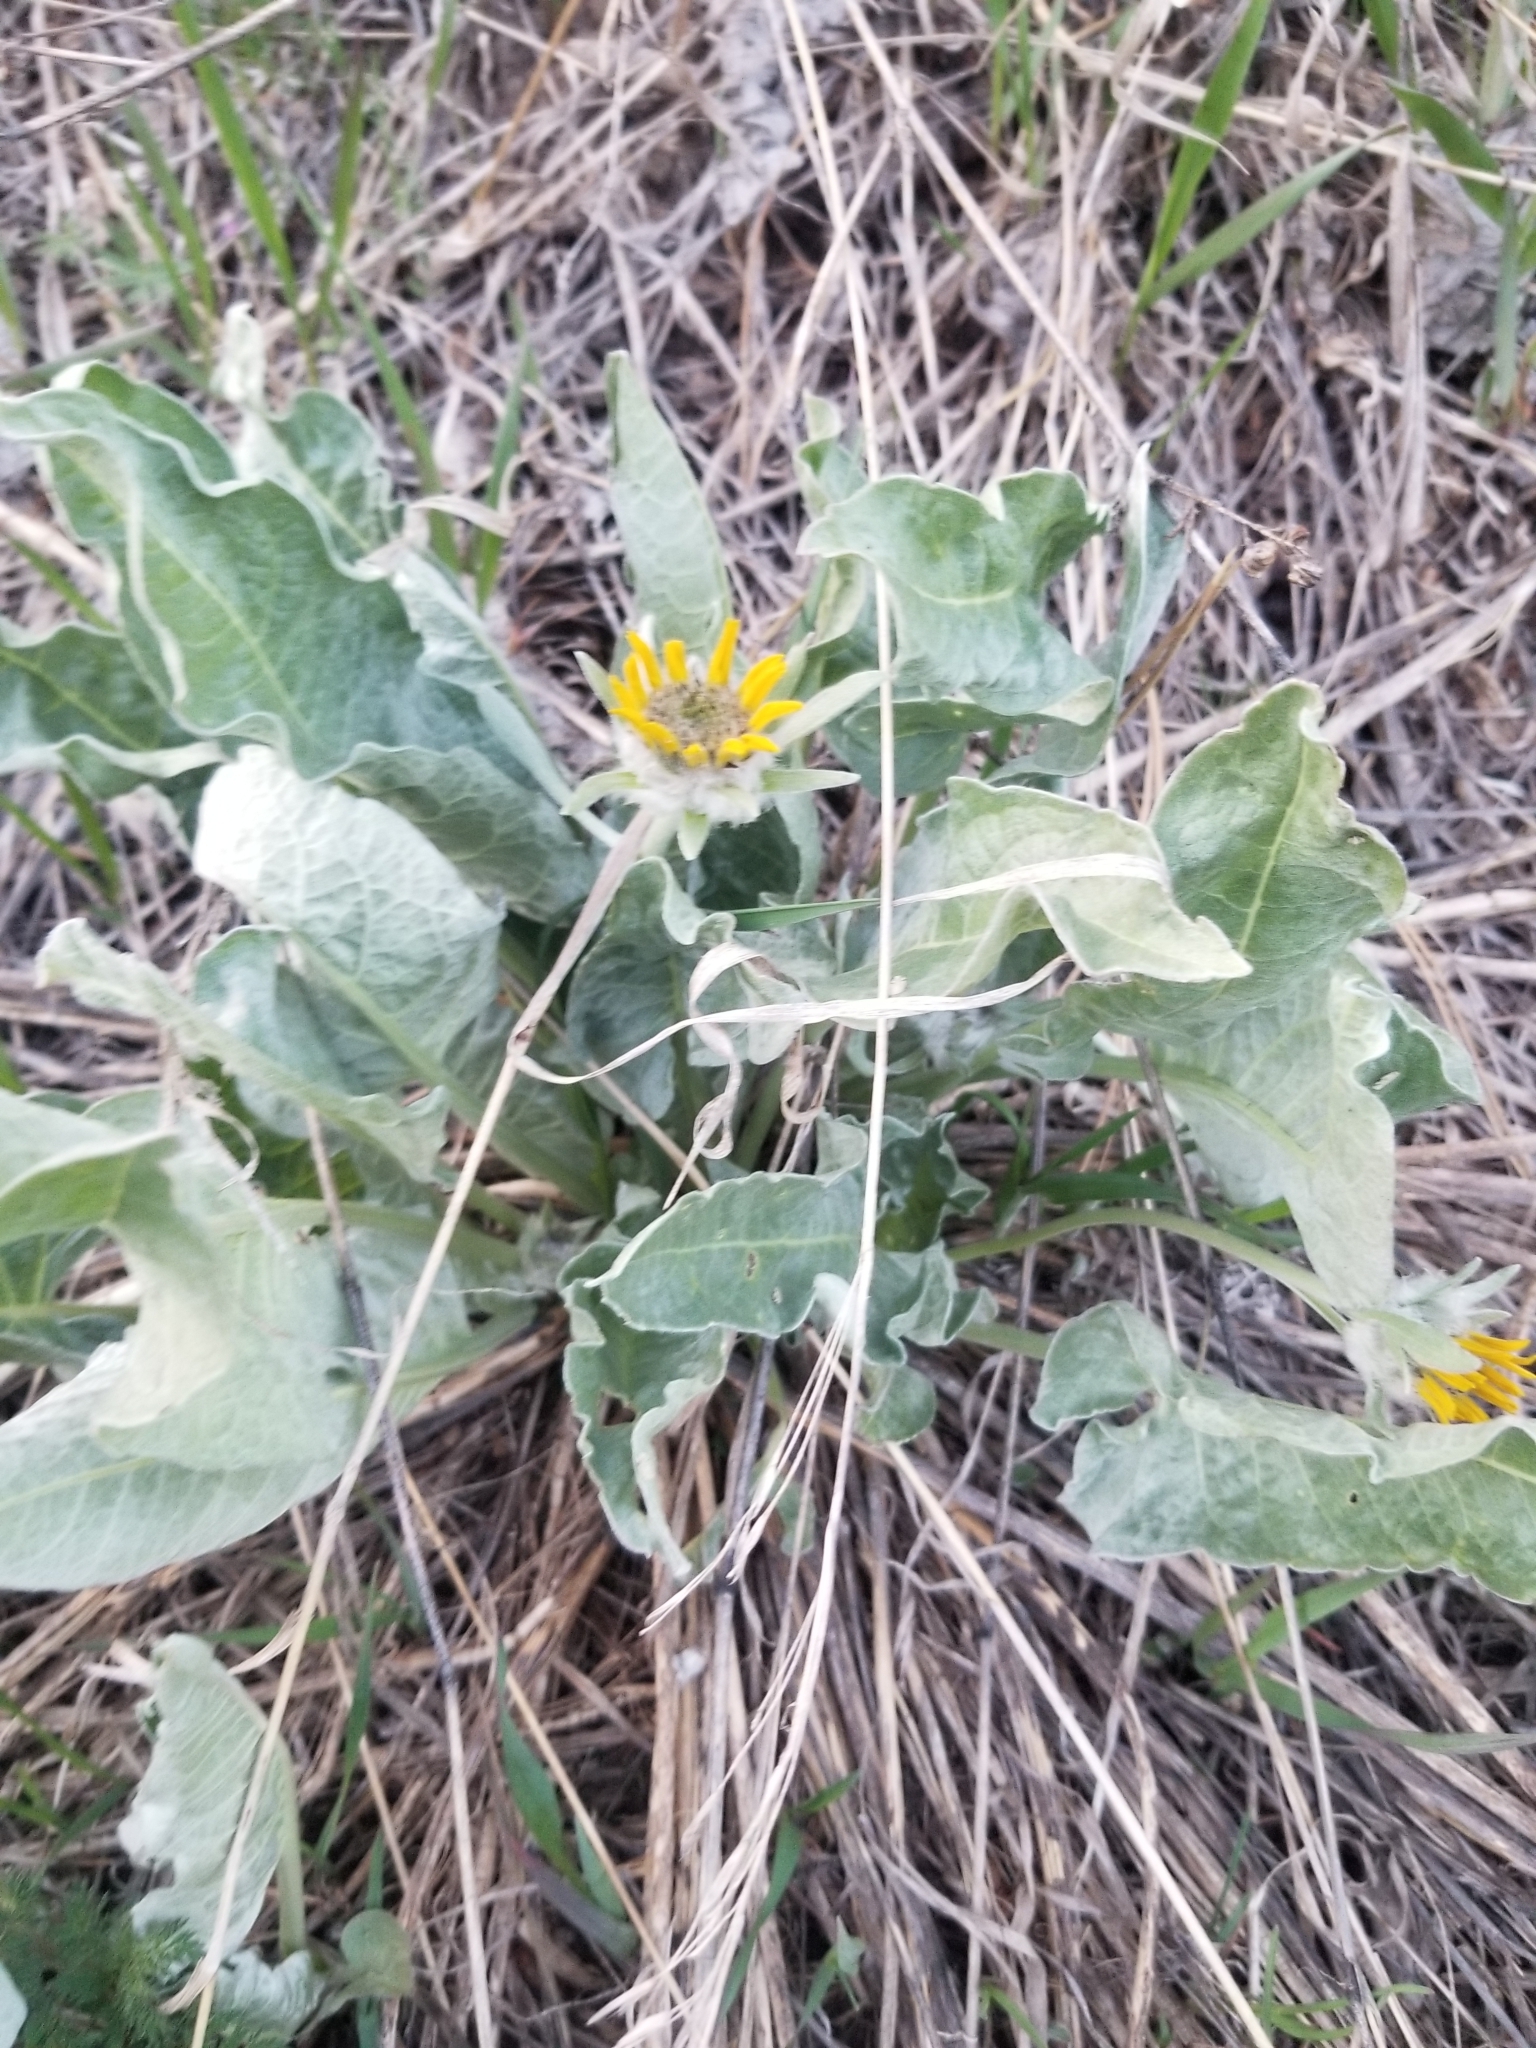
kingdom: Plantae
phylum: Tracheophyta
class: Magnoliopsida
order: Asterales
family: Asteraceae
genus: Wyethia
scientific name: Wyethia sagittata
